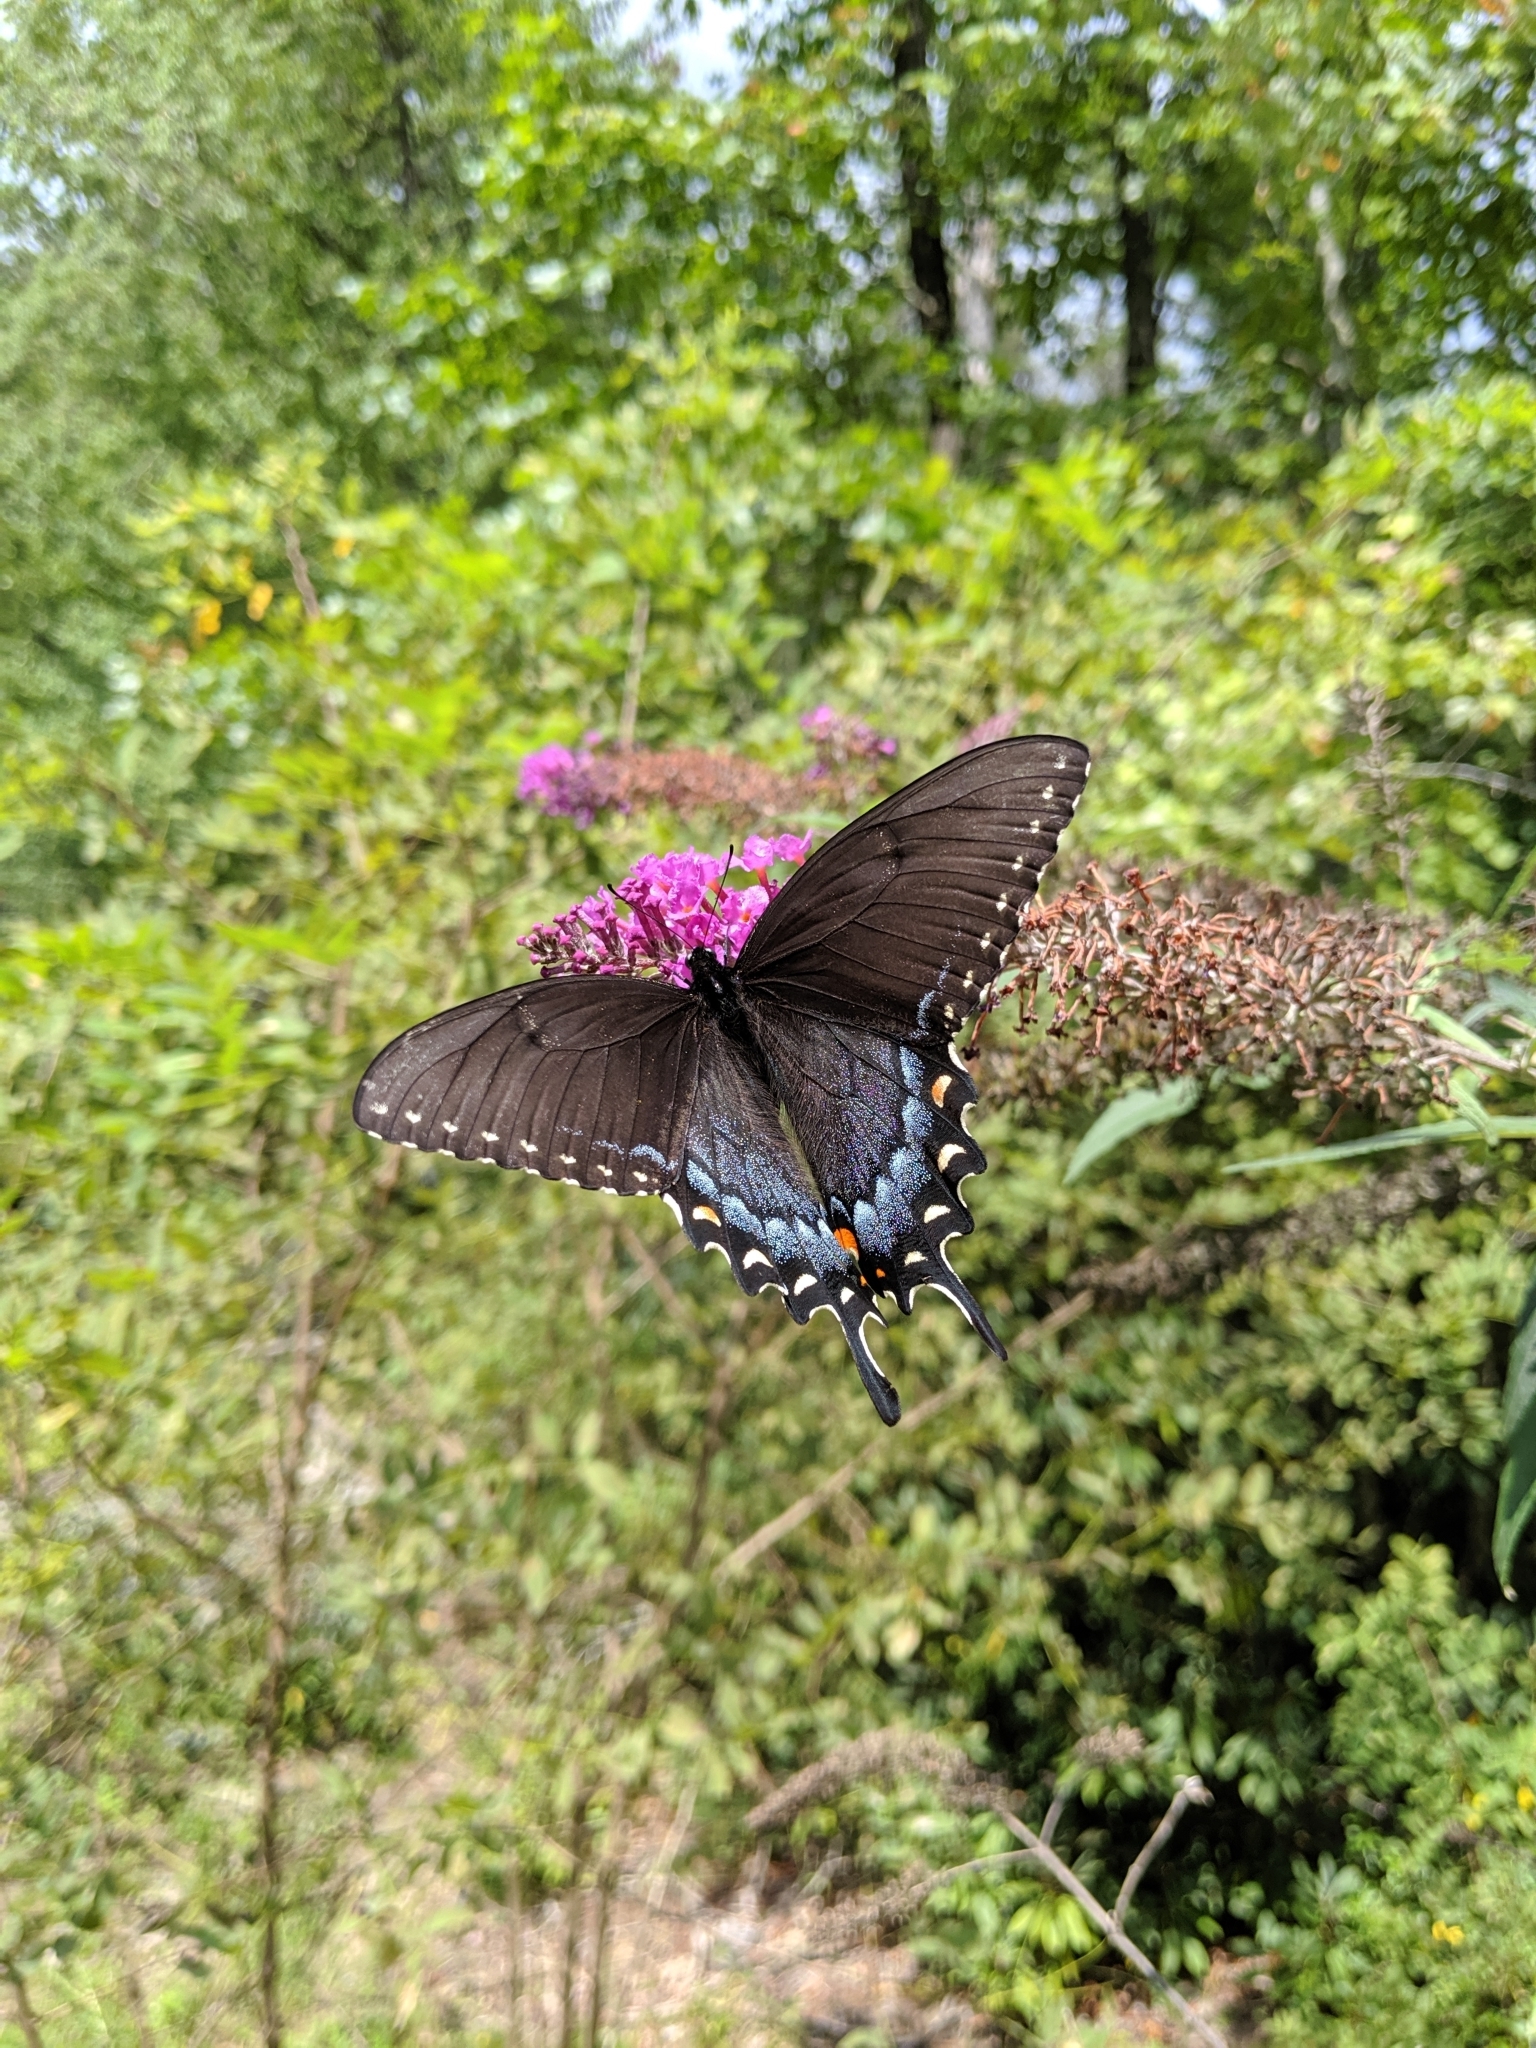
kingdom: Animalia
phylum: Arthropoda
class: Insecta
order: Lepidoptera
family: Papilionidae
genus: Papilio
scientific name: Papilio glaucus
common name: Tiger swallowtail
